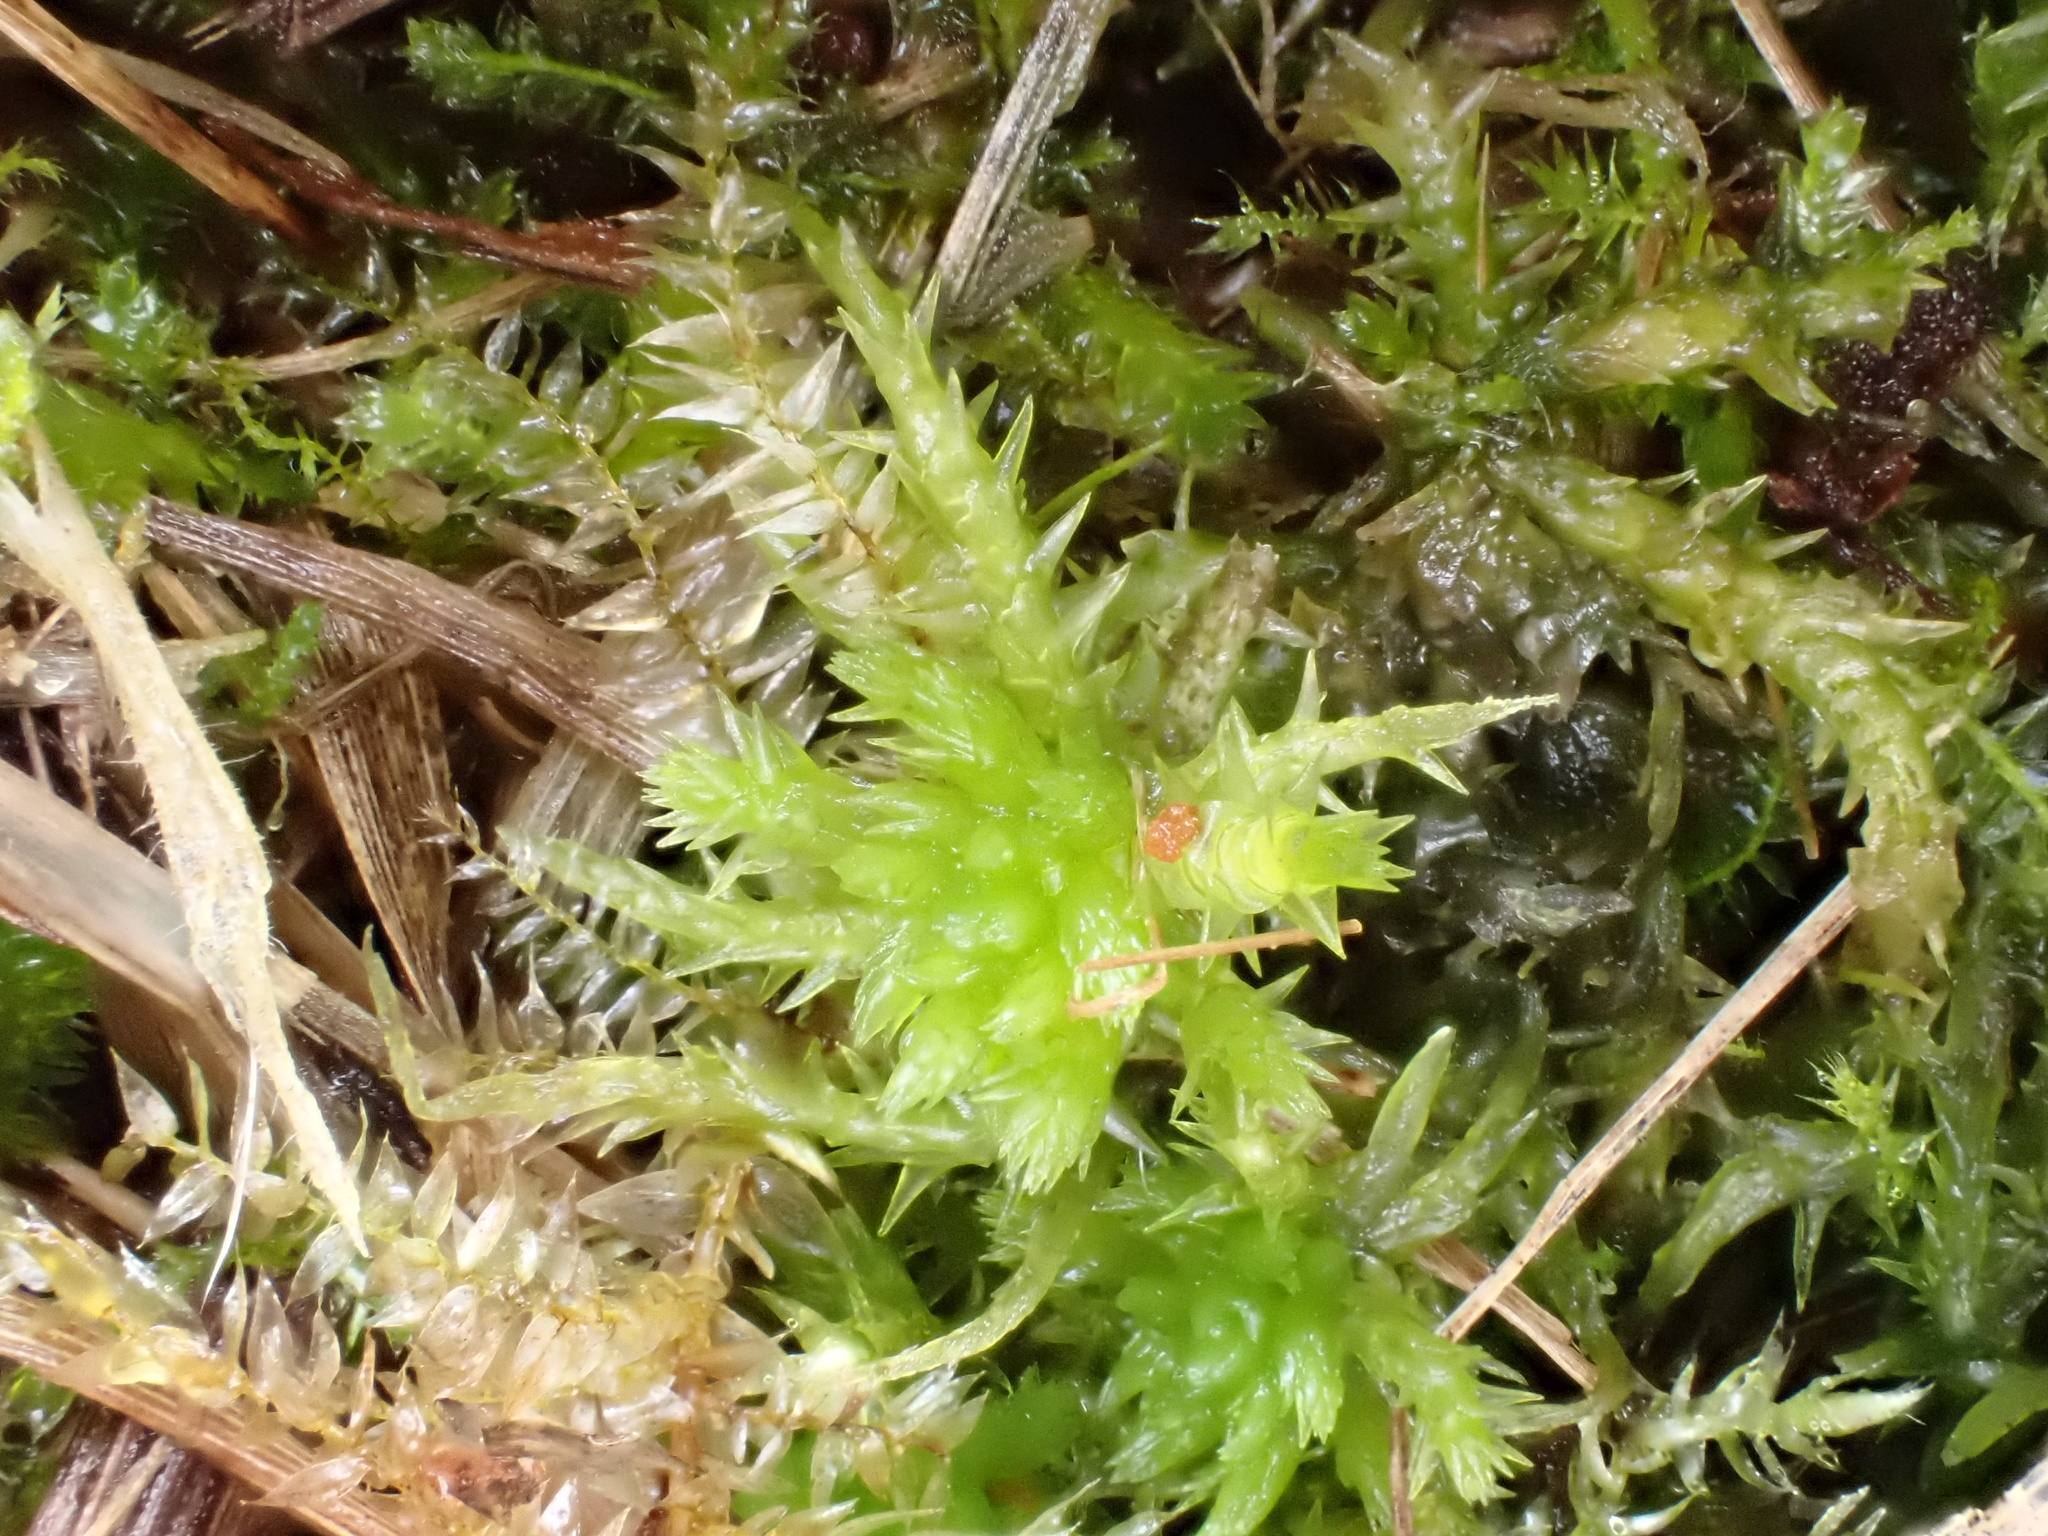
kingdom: Plantae
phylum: Bryophyta
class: Sphagnopsida
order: Sphagnales
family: Sphagnaceae
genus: Sphagnum
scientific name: Sphagnum squarrosum
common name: Shaggy peat moss
